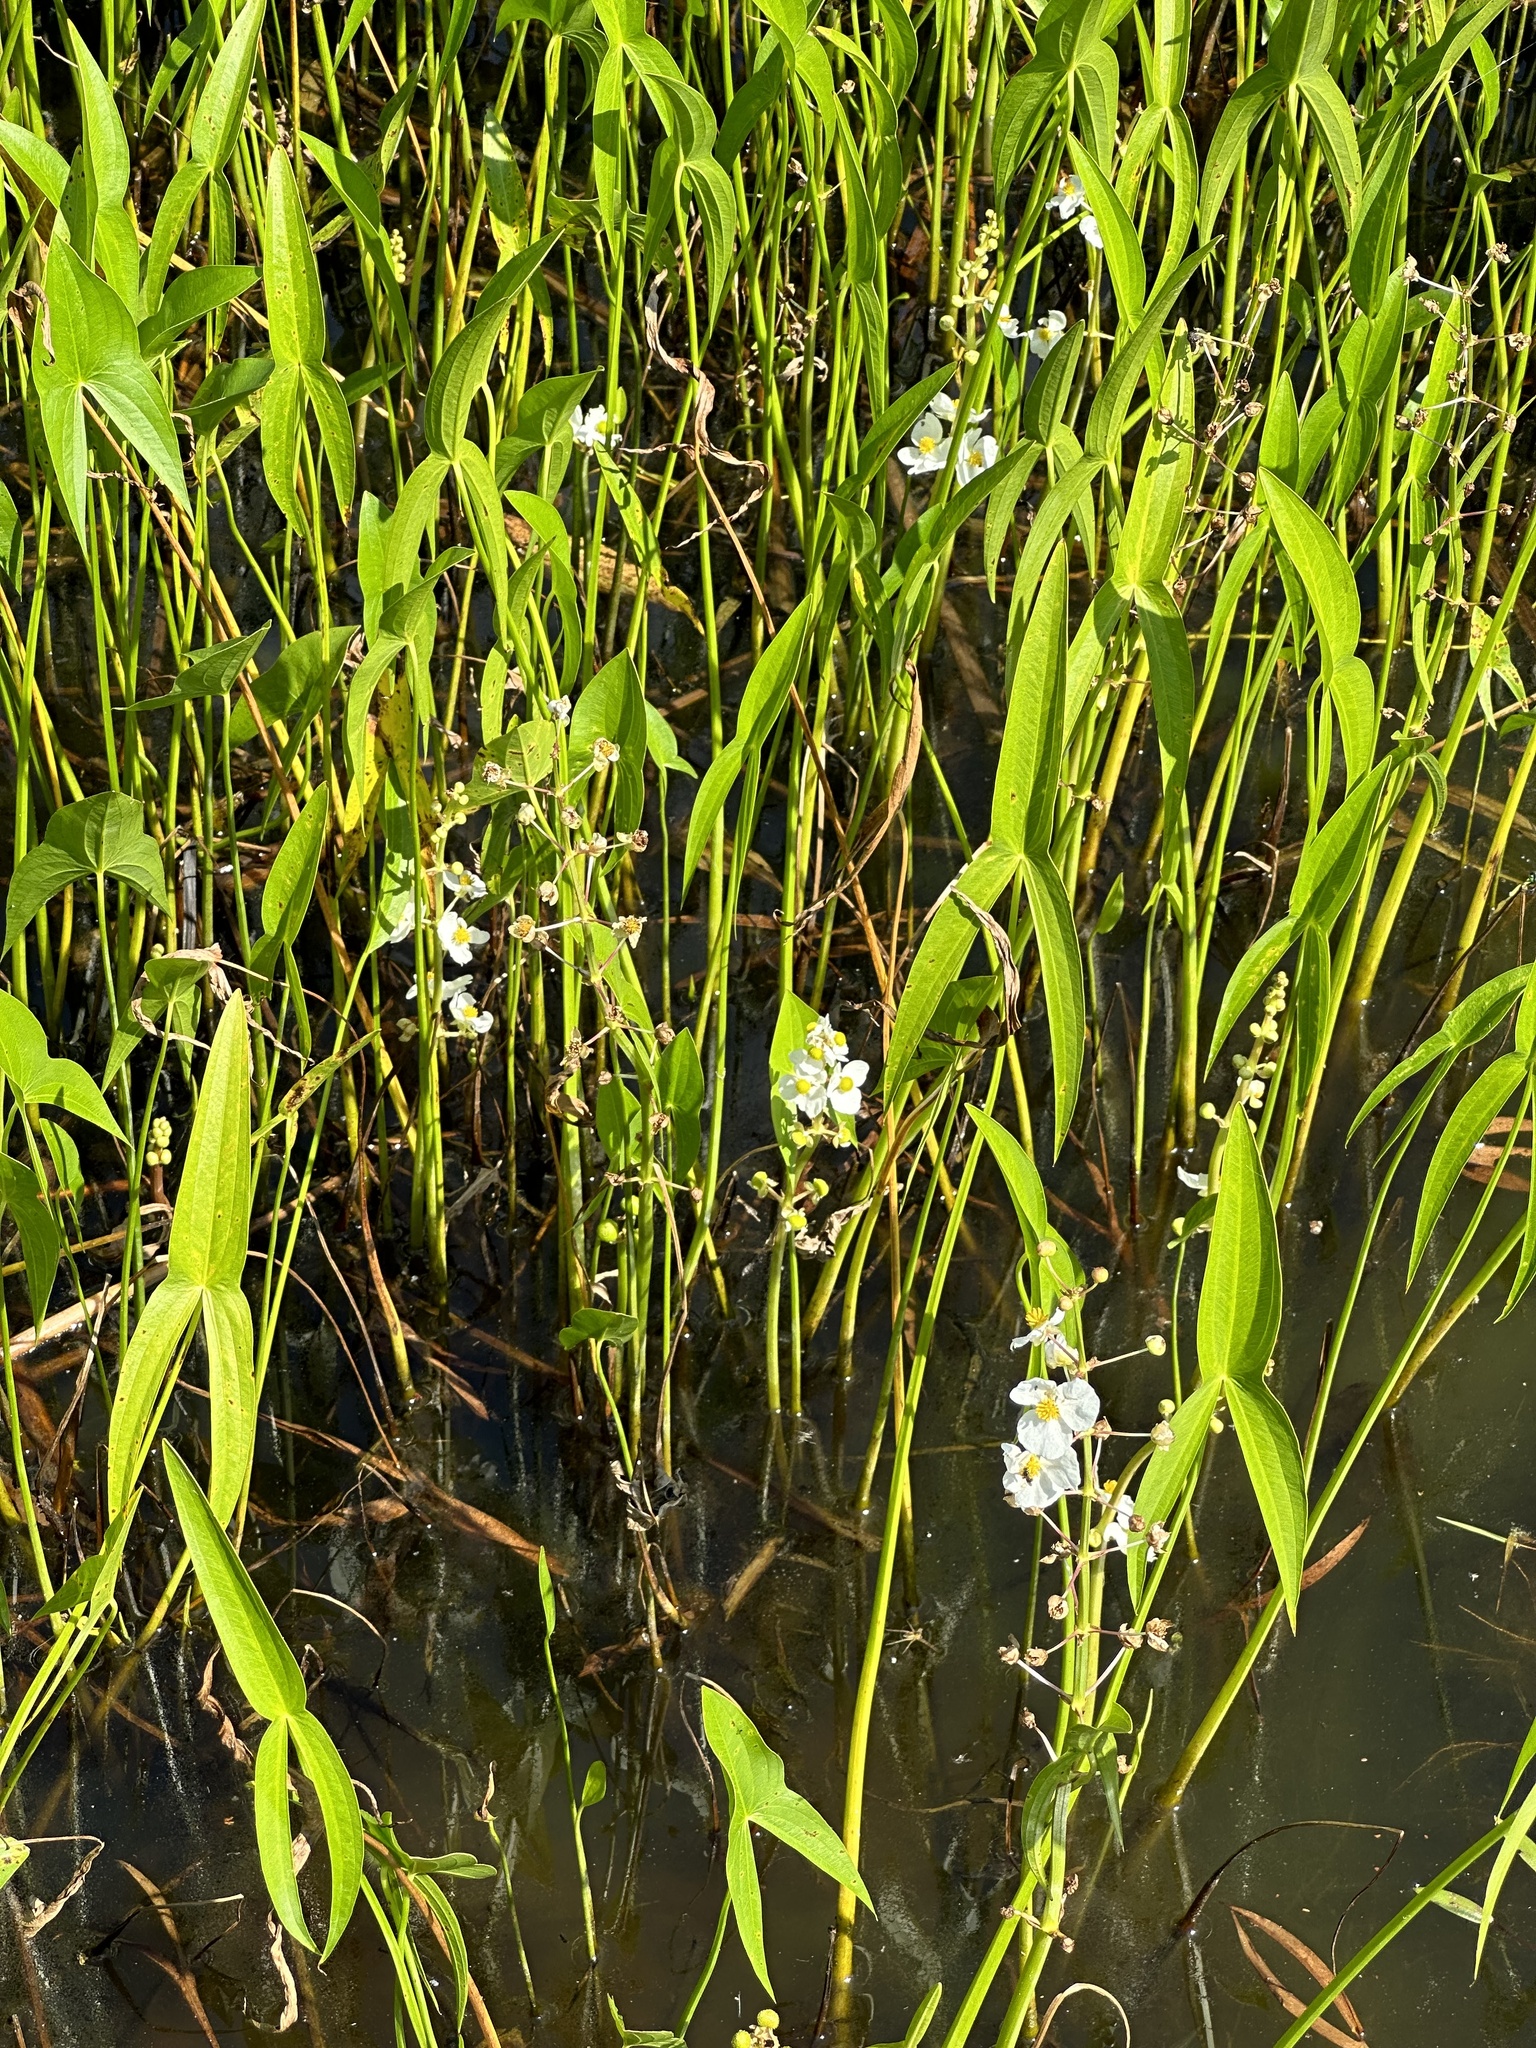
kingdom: Plantae
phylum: Tracheophyta
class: Liliopsida
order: Alismatales
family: Alismataceae
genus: Sagittaria
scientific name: Sagittaria latifolia
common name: Duck-potato
